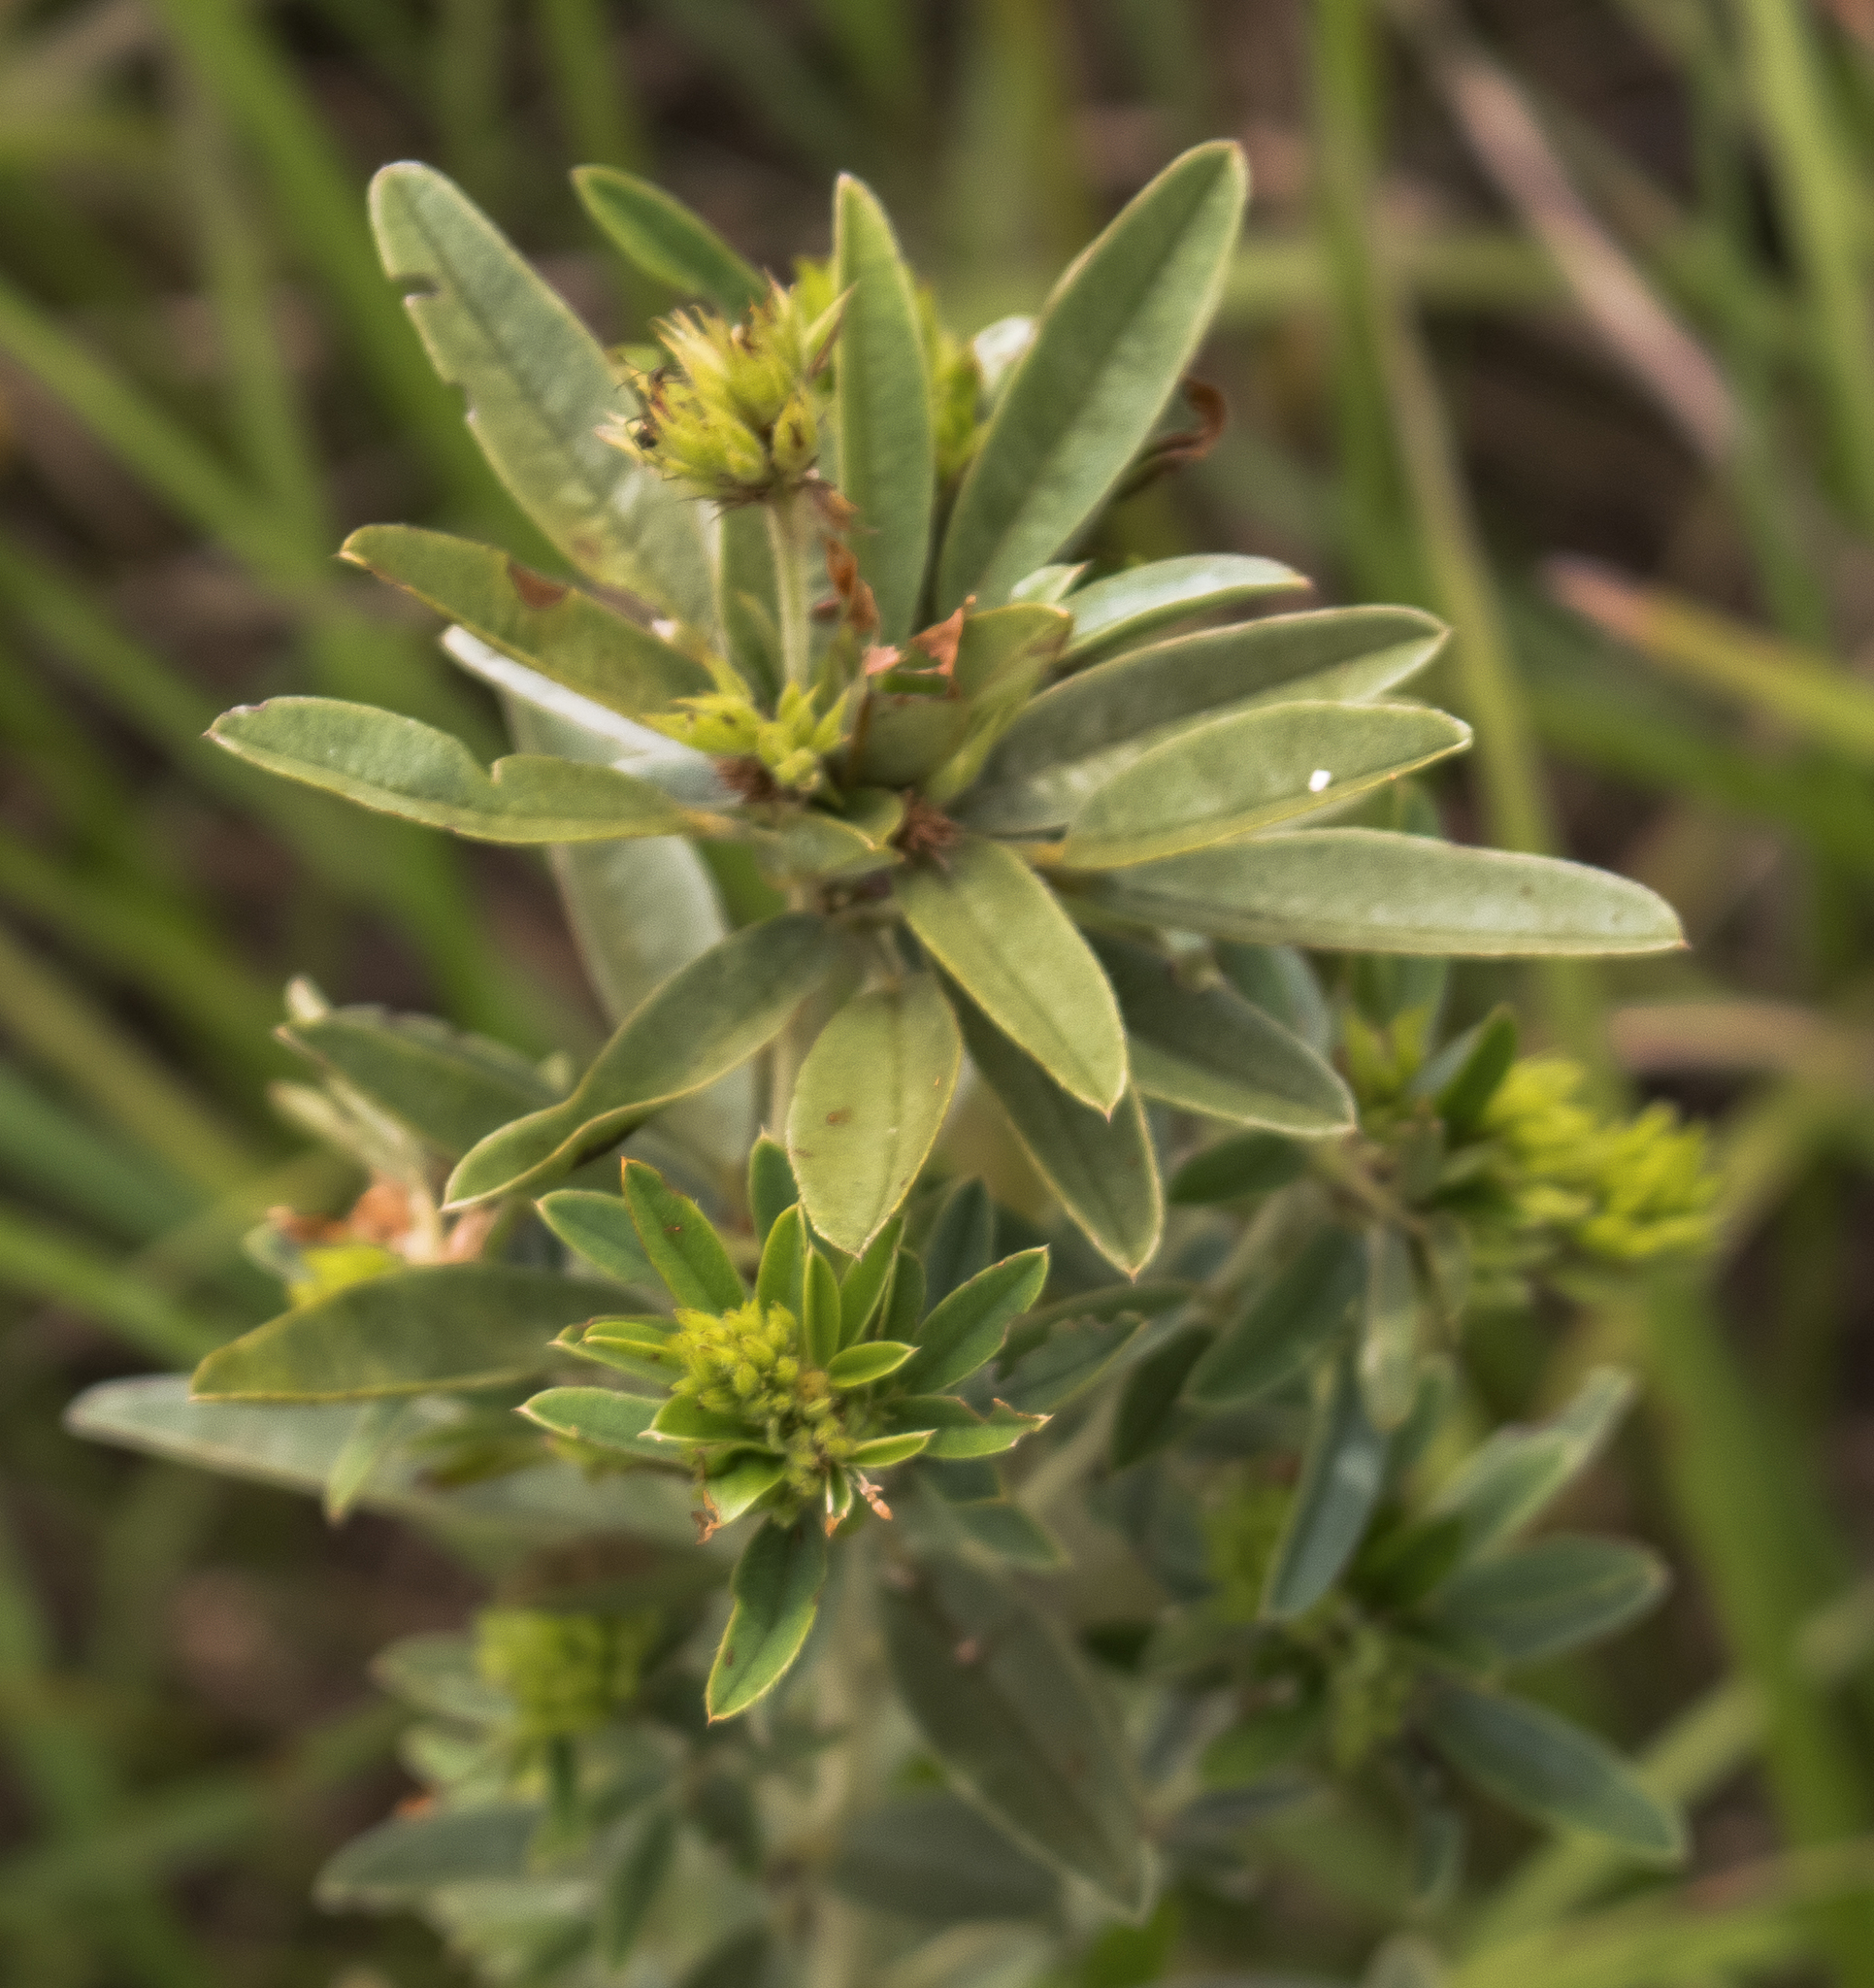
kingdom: Plantae
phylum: Tracheophyta
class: Magnoliopsida
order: Fabales
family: Fabaceae
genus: Lespedeza
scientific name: Lespedeza capitata
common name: Dusty clover
